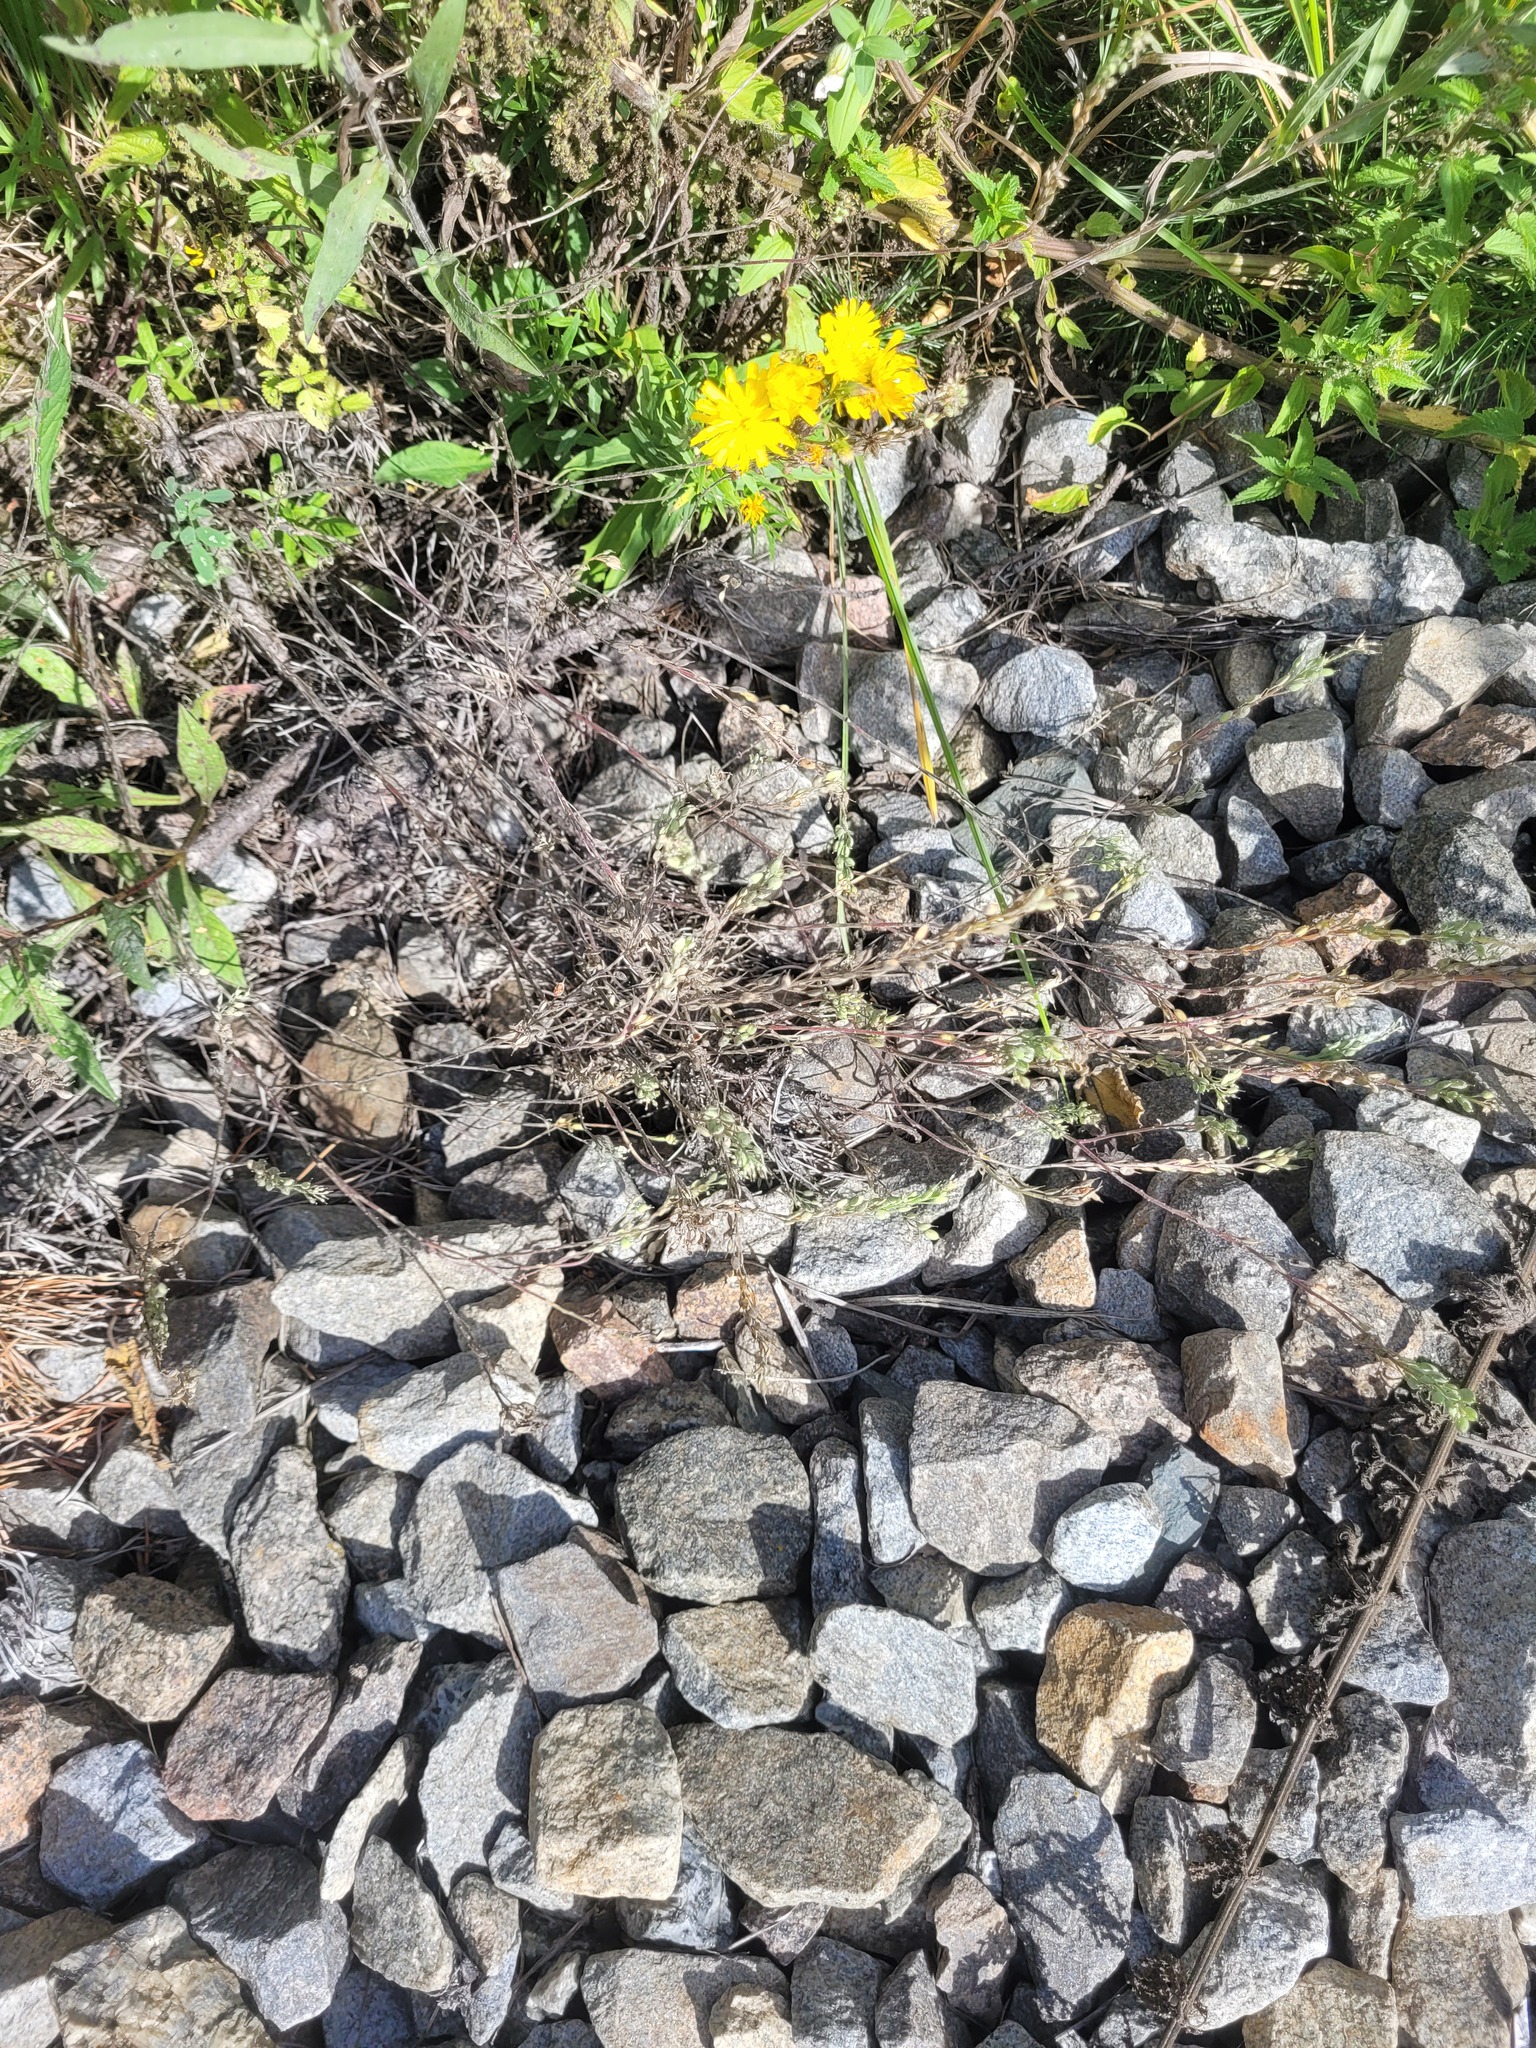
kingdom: Plantae
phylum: Tracheophyta
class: Magnoliopsida
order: Brassicales
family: Brassicaceae
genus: Berteroa
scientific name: Berteroa incana
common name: Hoary alison
